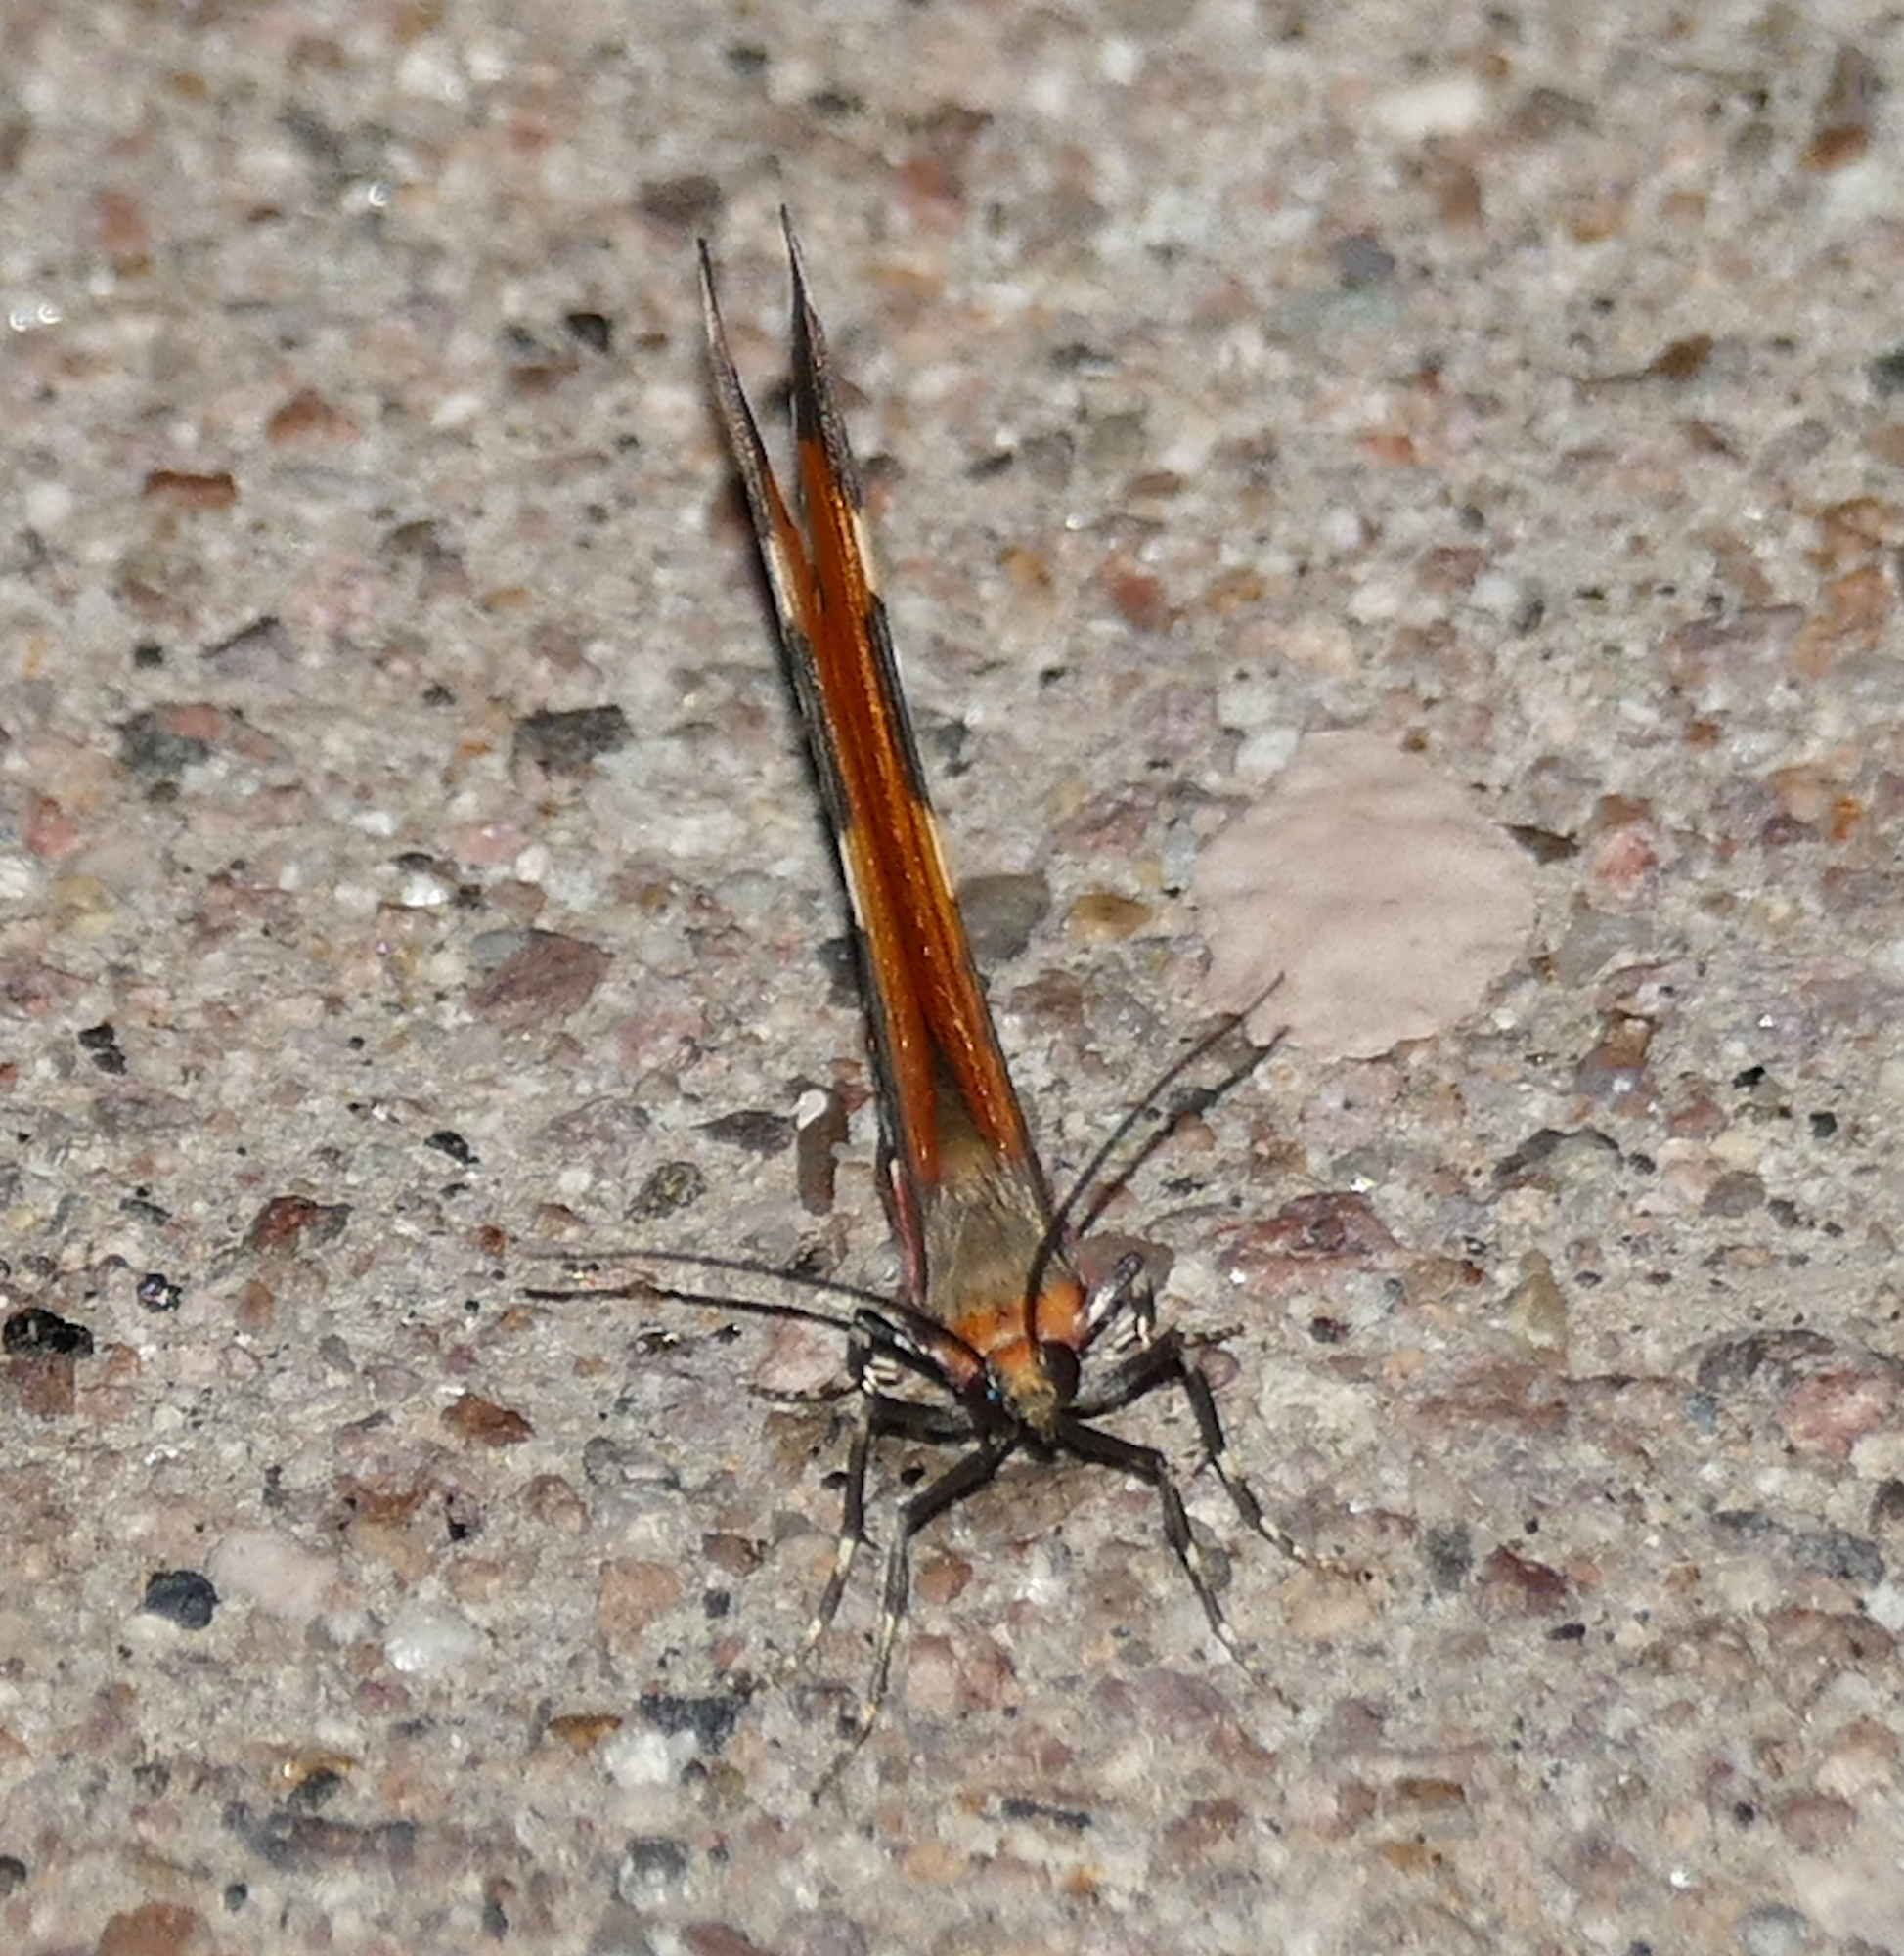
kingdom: Animalia
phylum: Arthropoda
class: Insecta
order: Lepidoptera
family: Geometridae
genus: Stamnodes
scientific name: Stamnodes deceptiva
